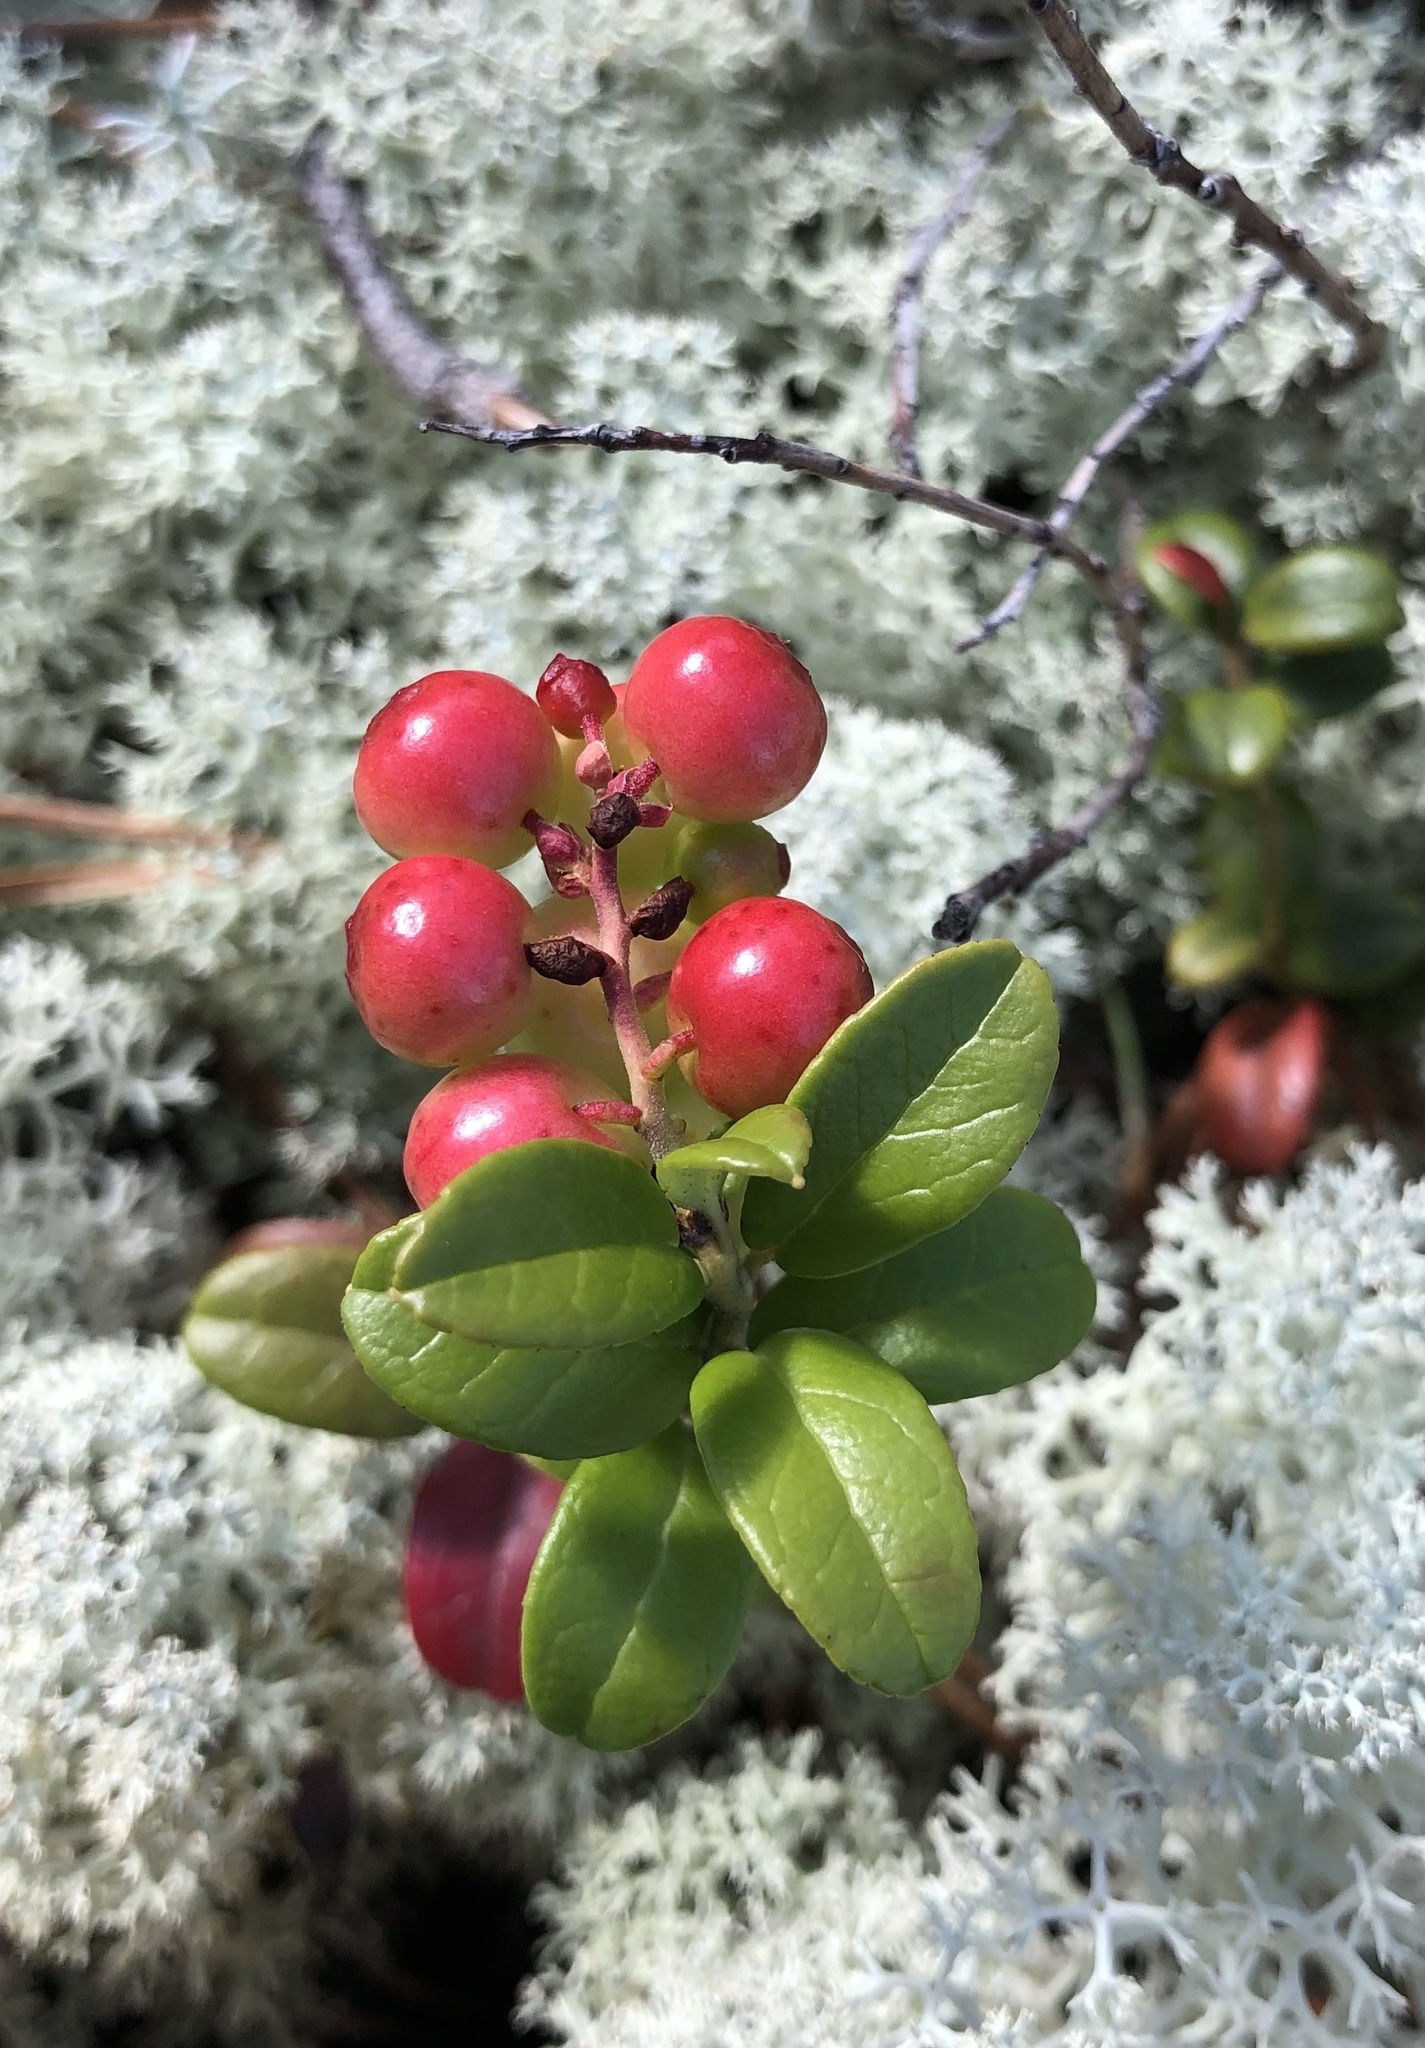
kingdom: Plantae
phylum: Tracheophyta
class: Magnoliopsida
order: Ericales
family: Ericaceae
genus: Vaccinium
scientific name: Vaccinium vitis-idaea
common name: Cowberry
